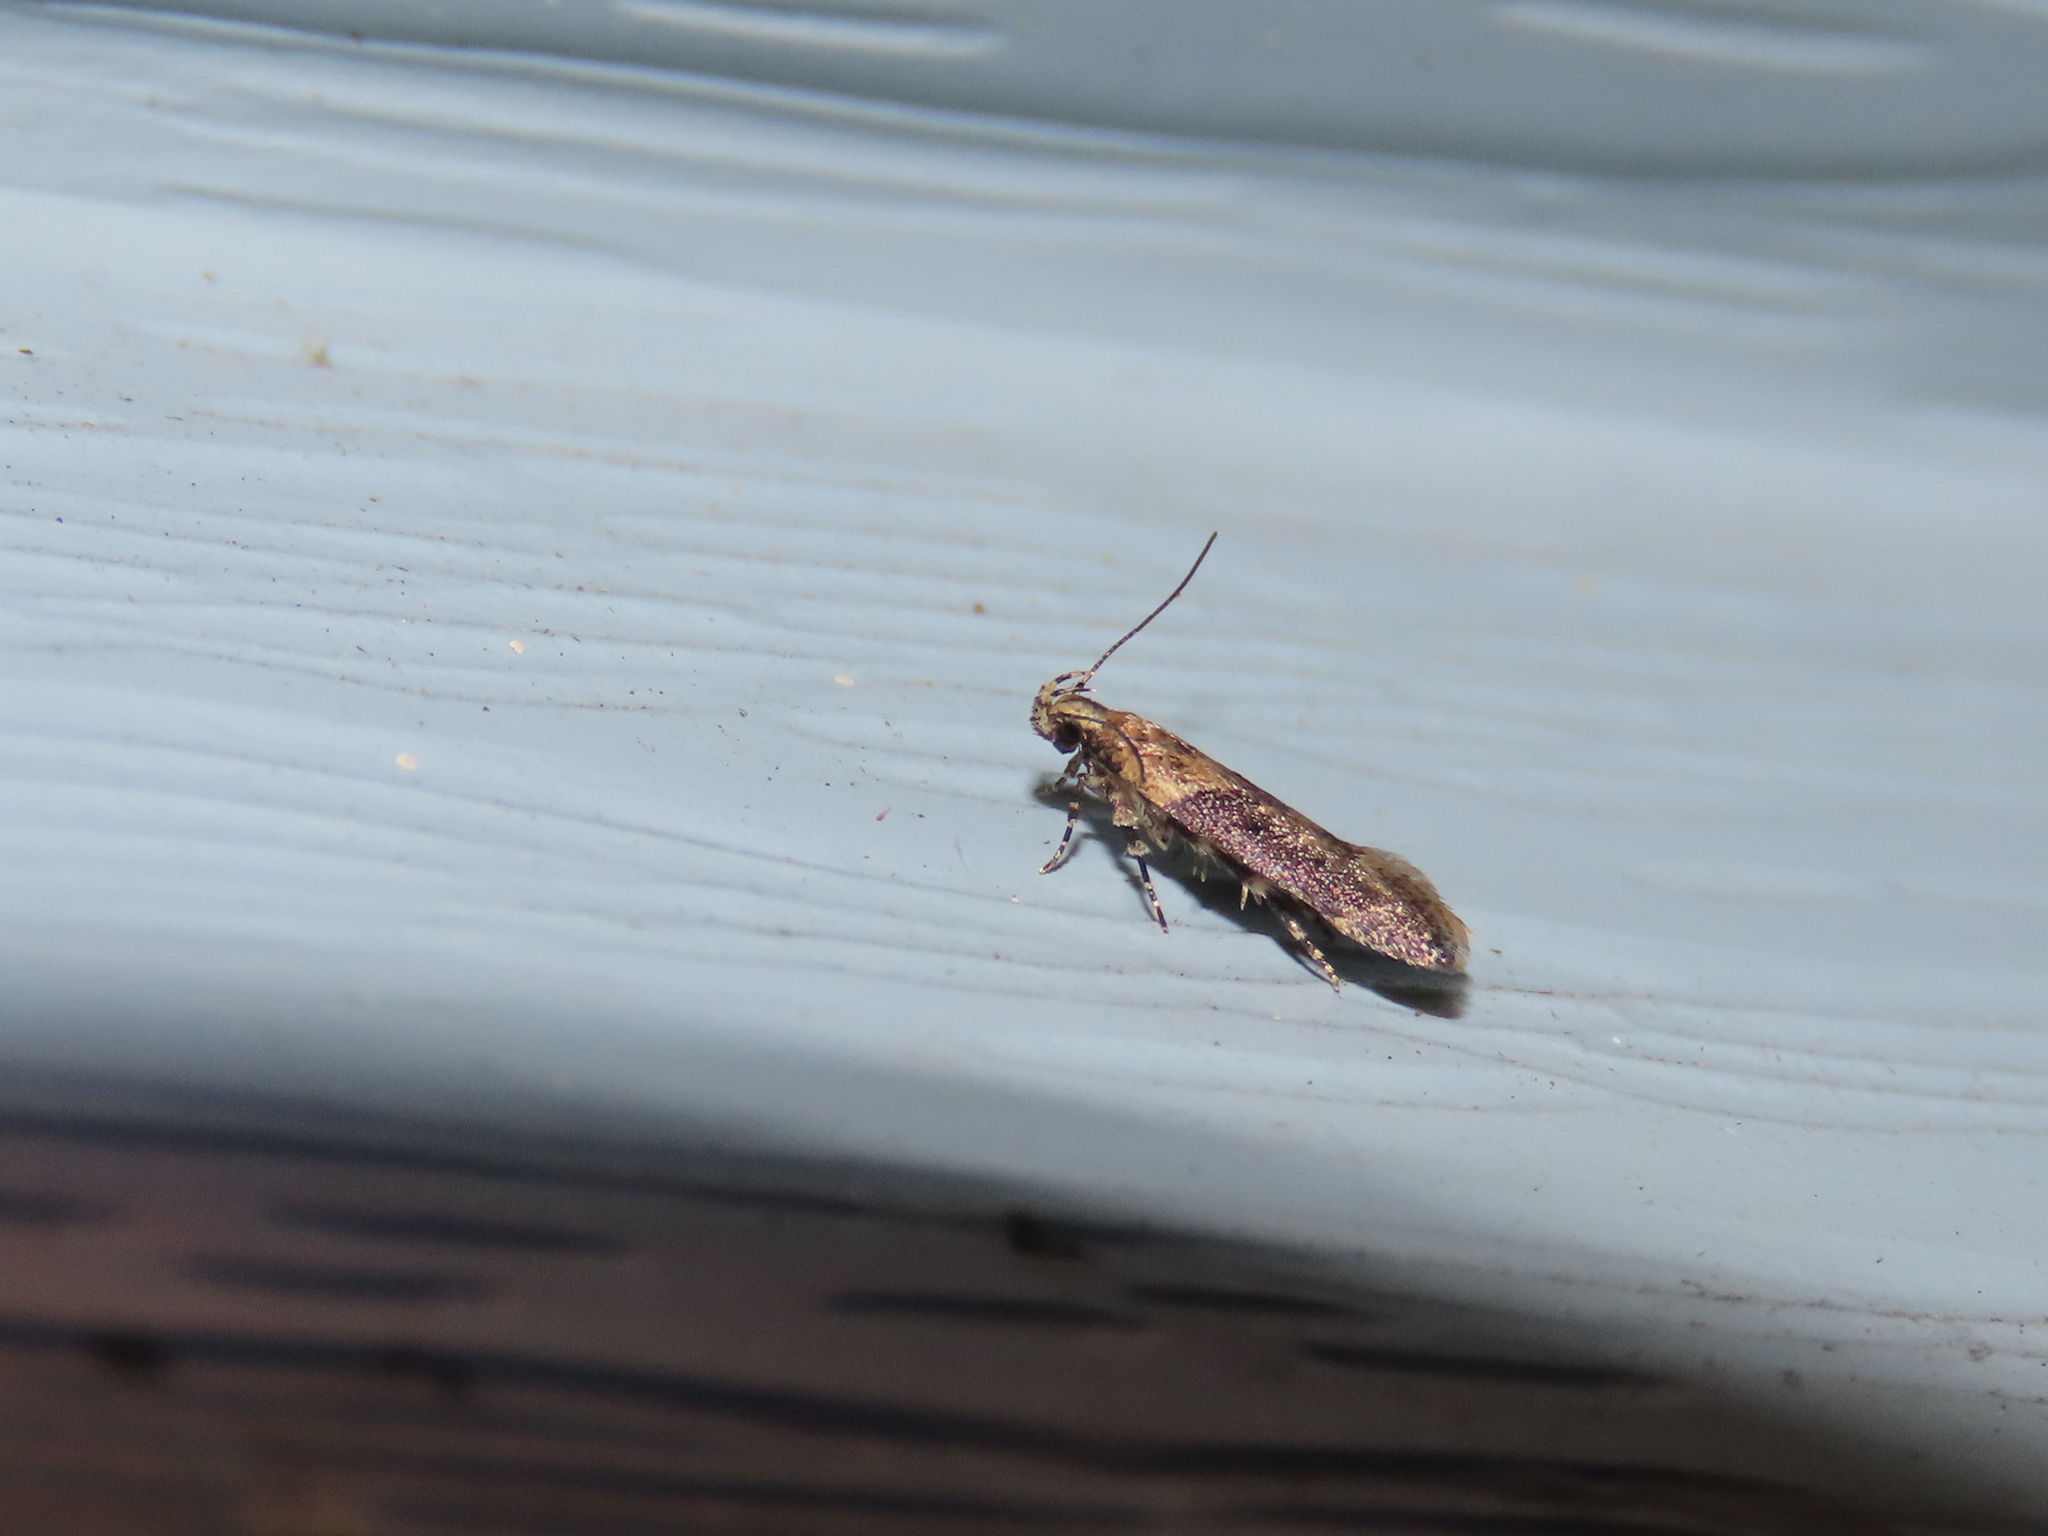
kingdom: Animalia
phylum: Arthropoda
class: Insecta
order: Lepidoptera
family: Gelechiidae
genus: Chionodes
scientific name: Chionodes mediofuscella
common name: Black-smudged chionodes moth
